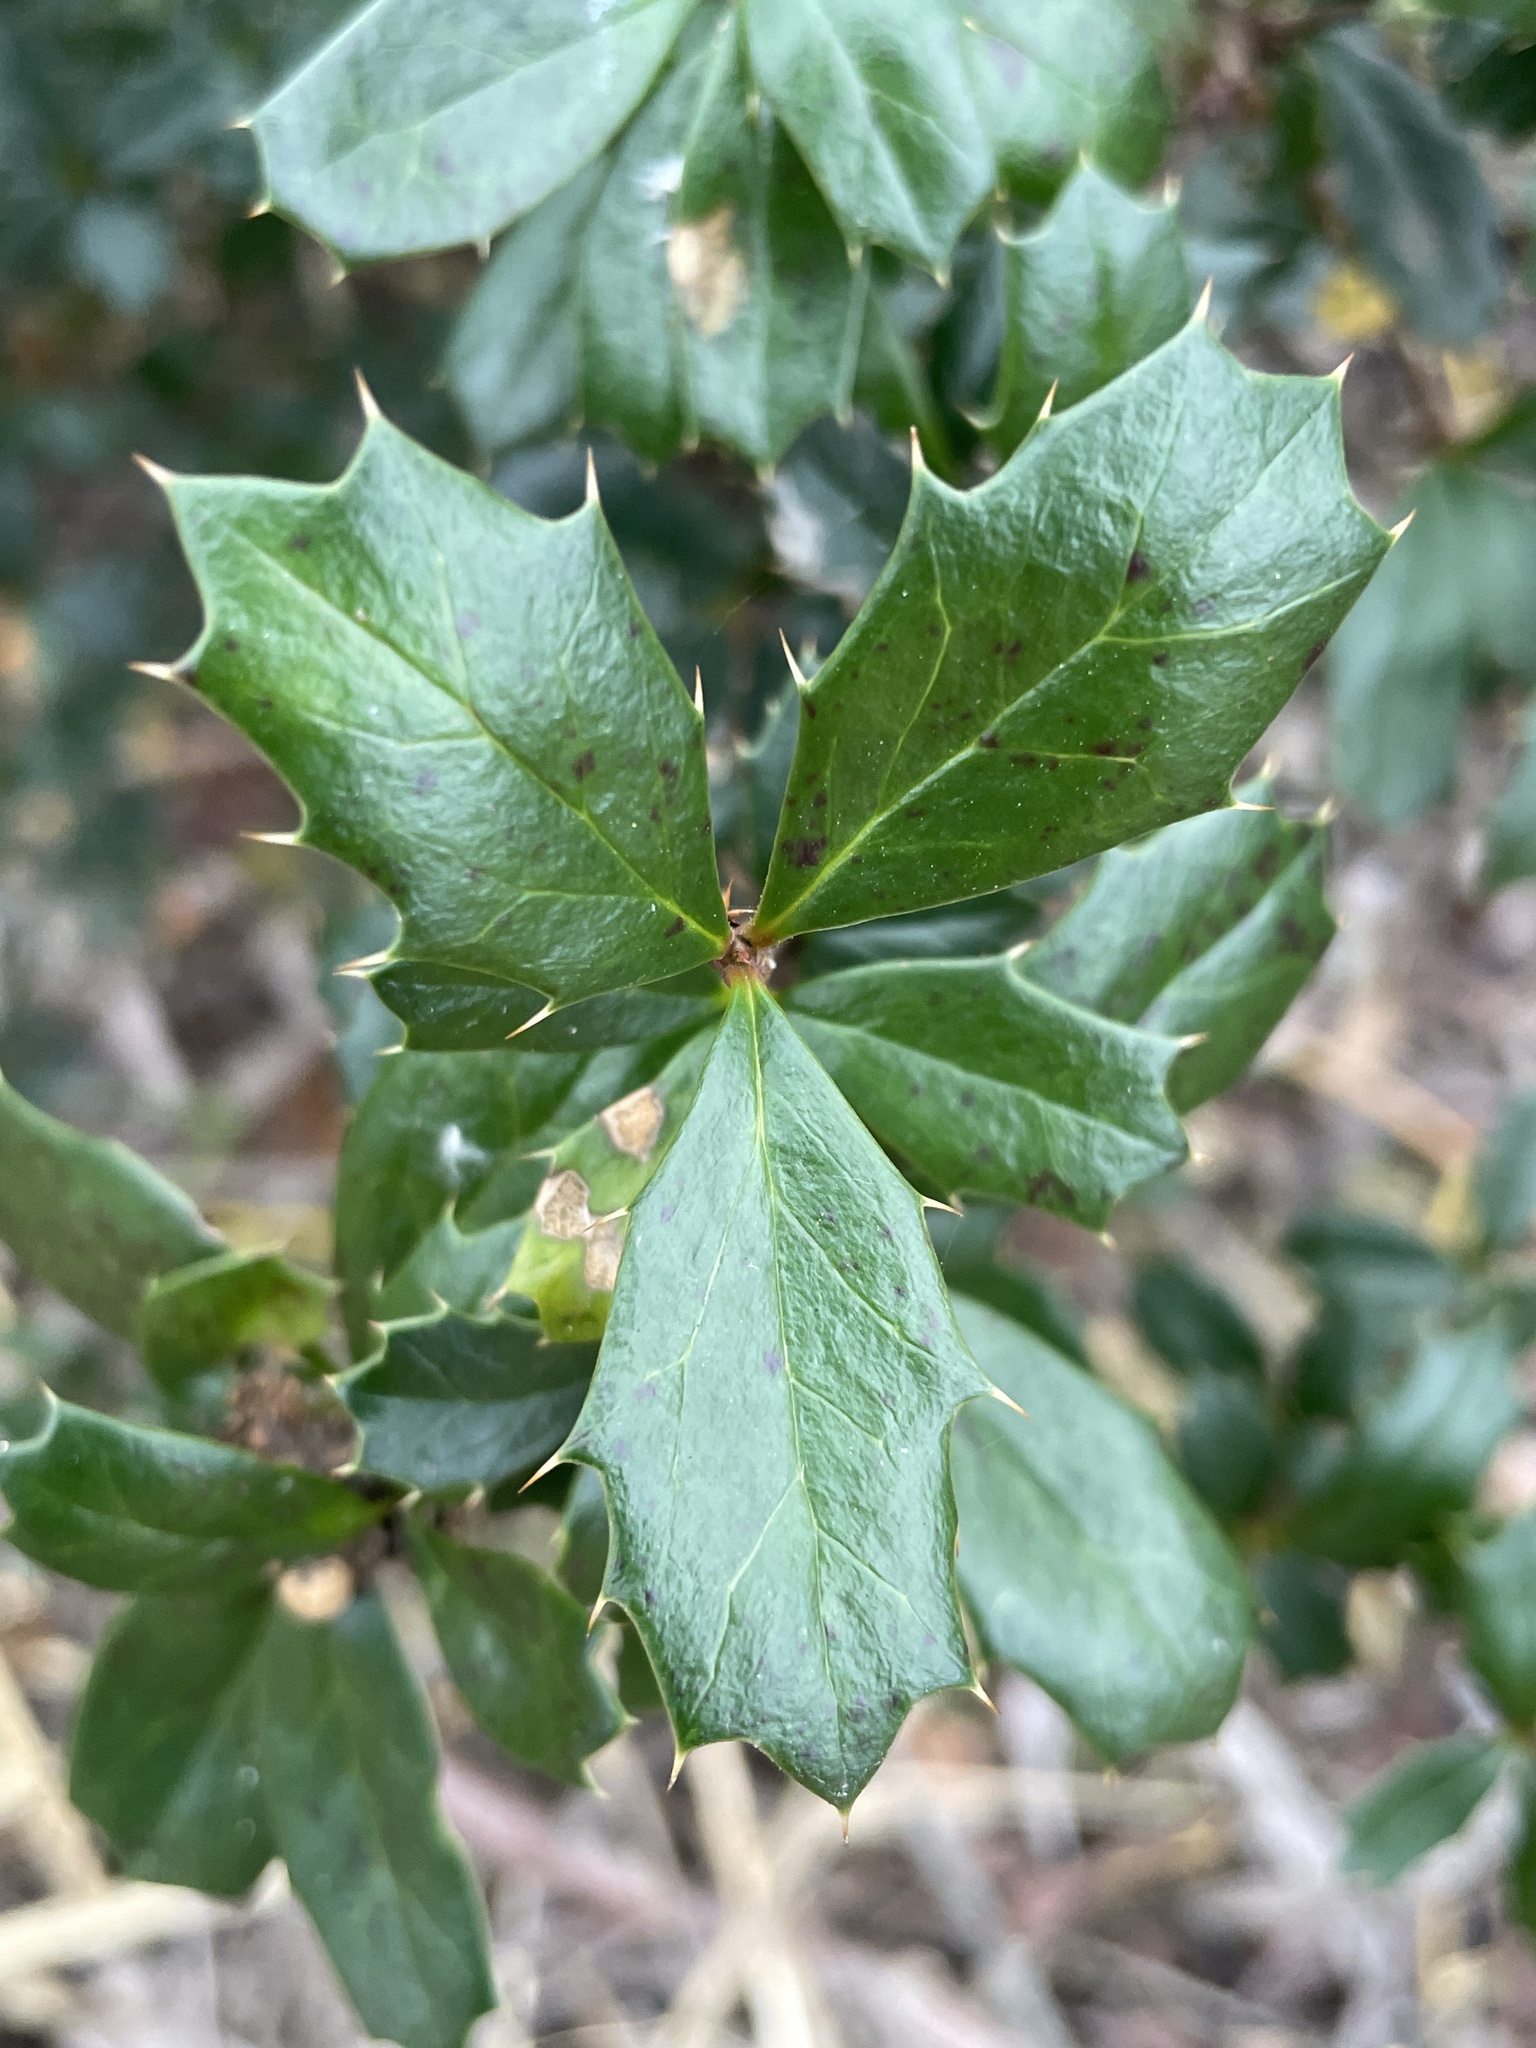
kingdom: Plantae
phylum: Tracheophyta
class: Magnoliopsida
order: Ranunculales
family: Berberidaceae
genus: Berberis
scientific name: Berberis darwinii
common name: Darwin's barberry
